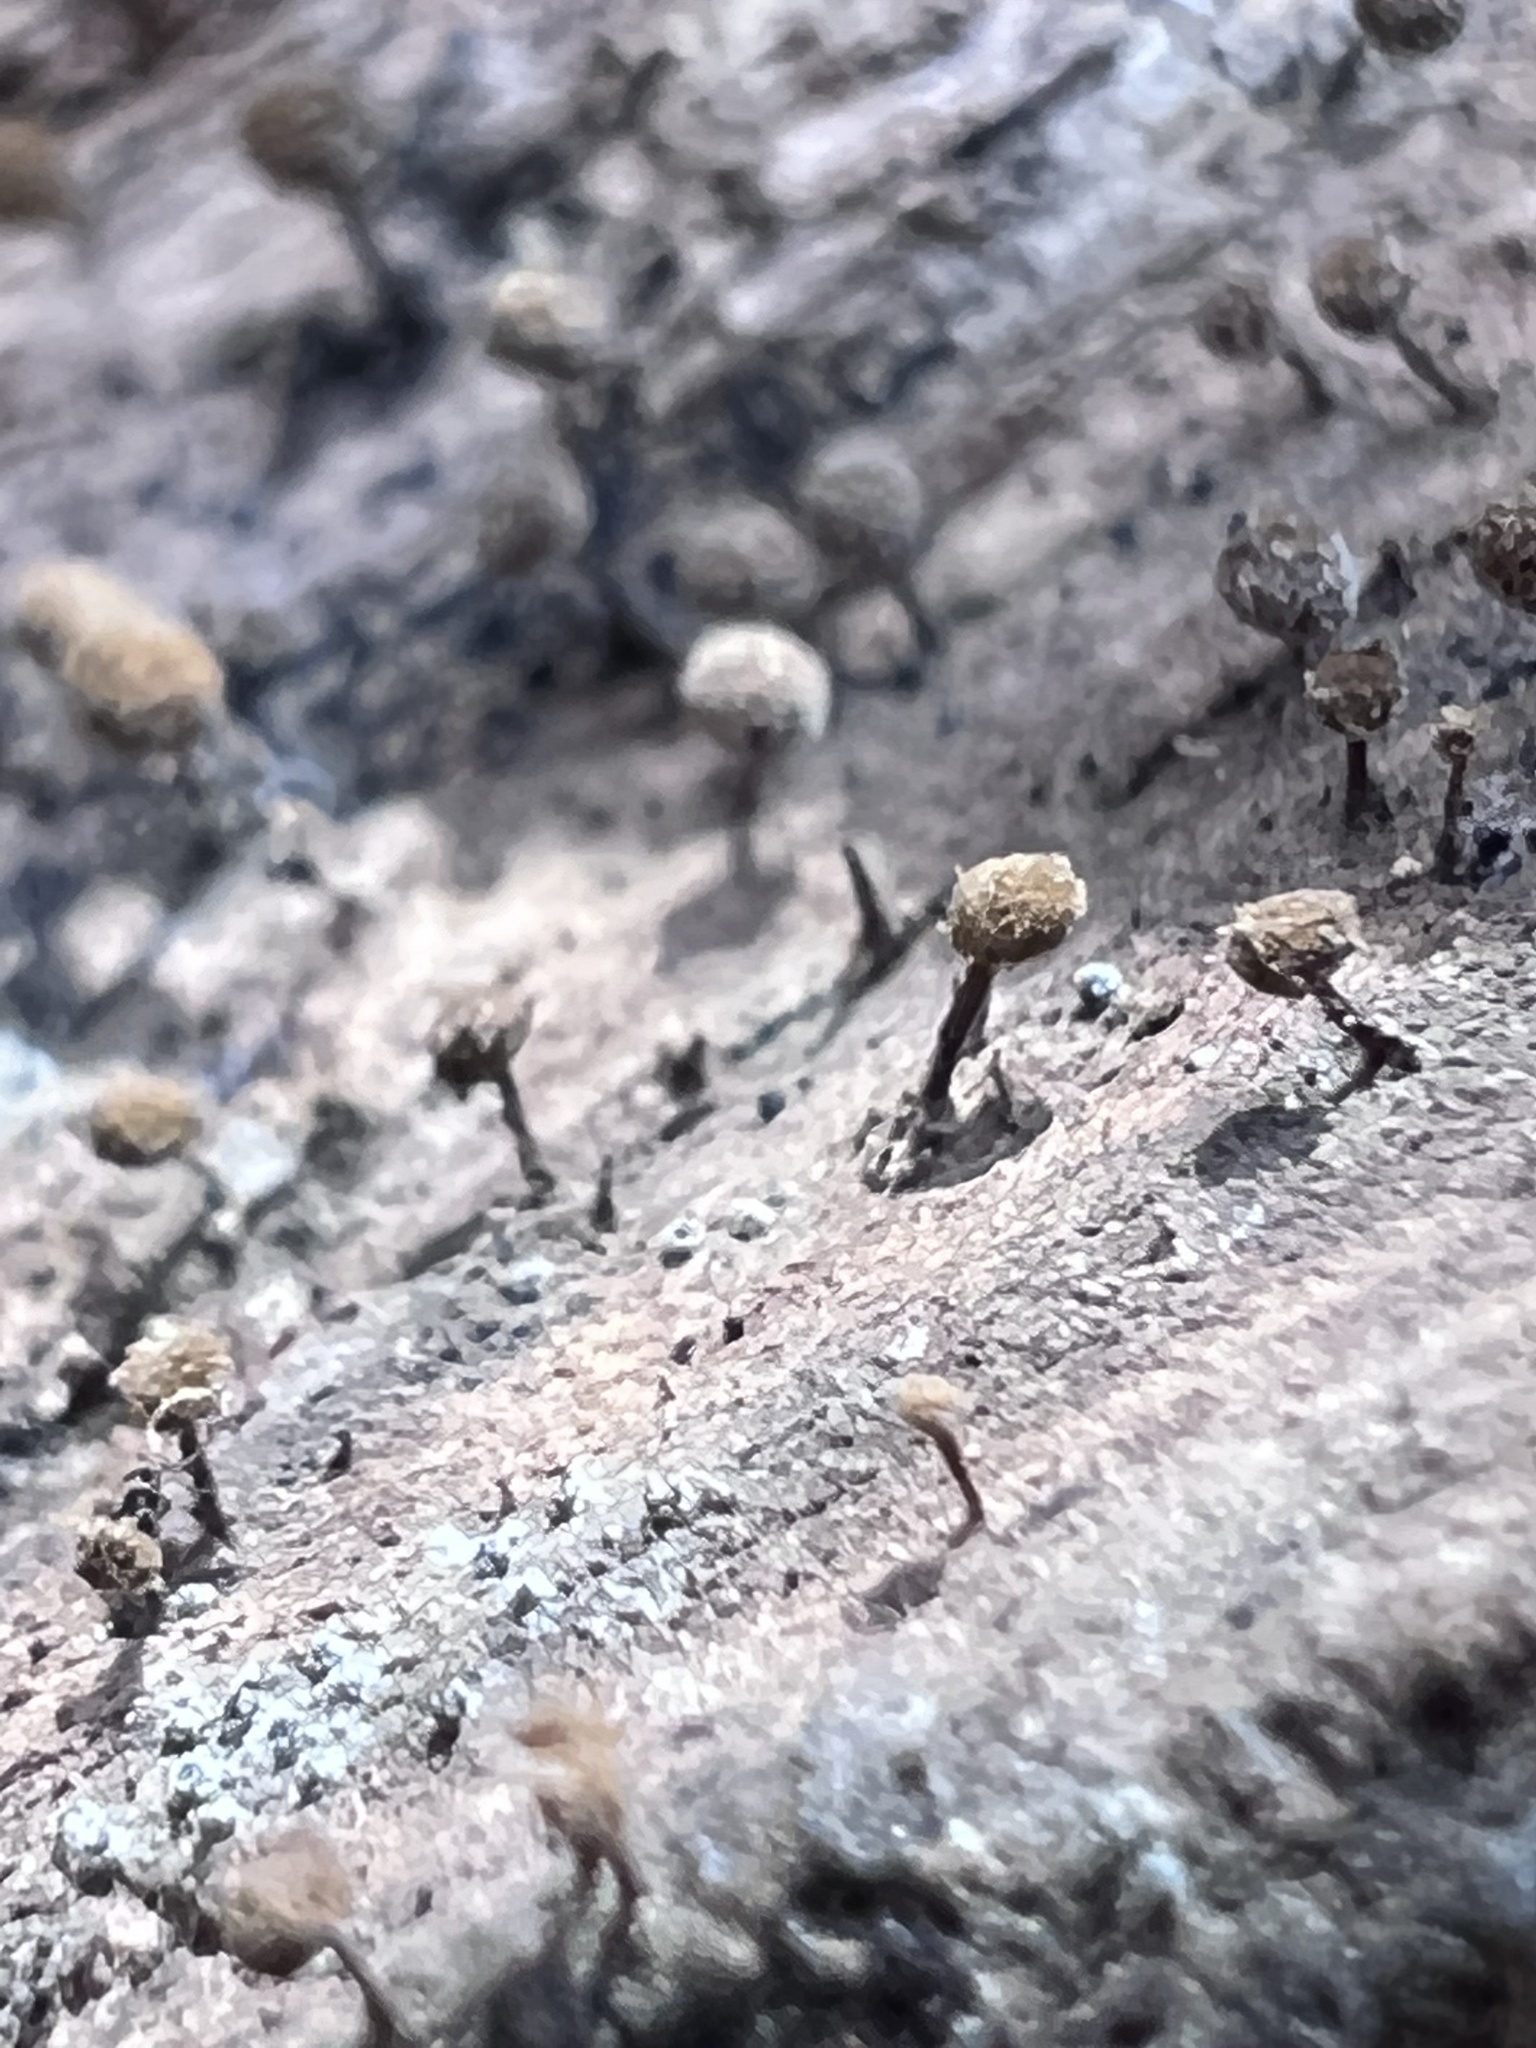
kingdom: Fungi
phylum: Basidiomycota
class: Atractiellomycetes
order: Atractiellales
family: Phleogenaceae
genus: Phleogena
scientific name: Phleogena faginea
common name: Fenugreek stalkball
